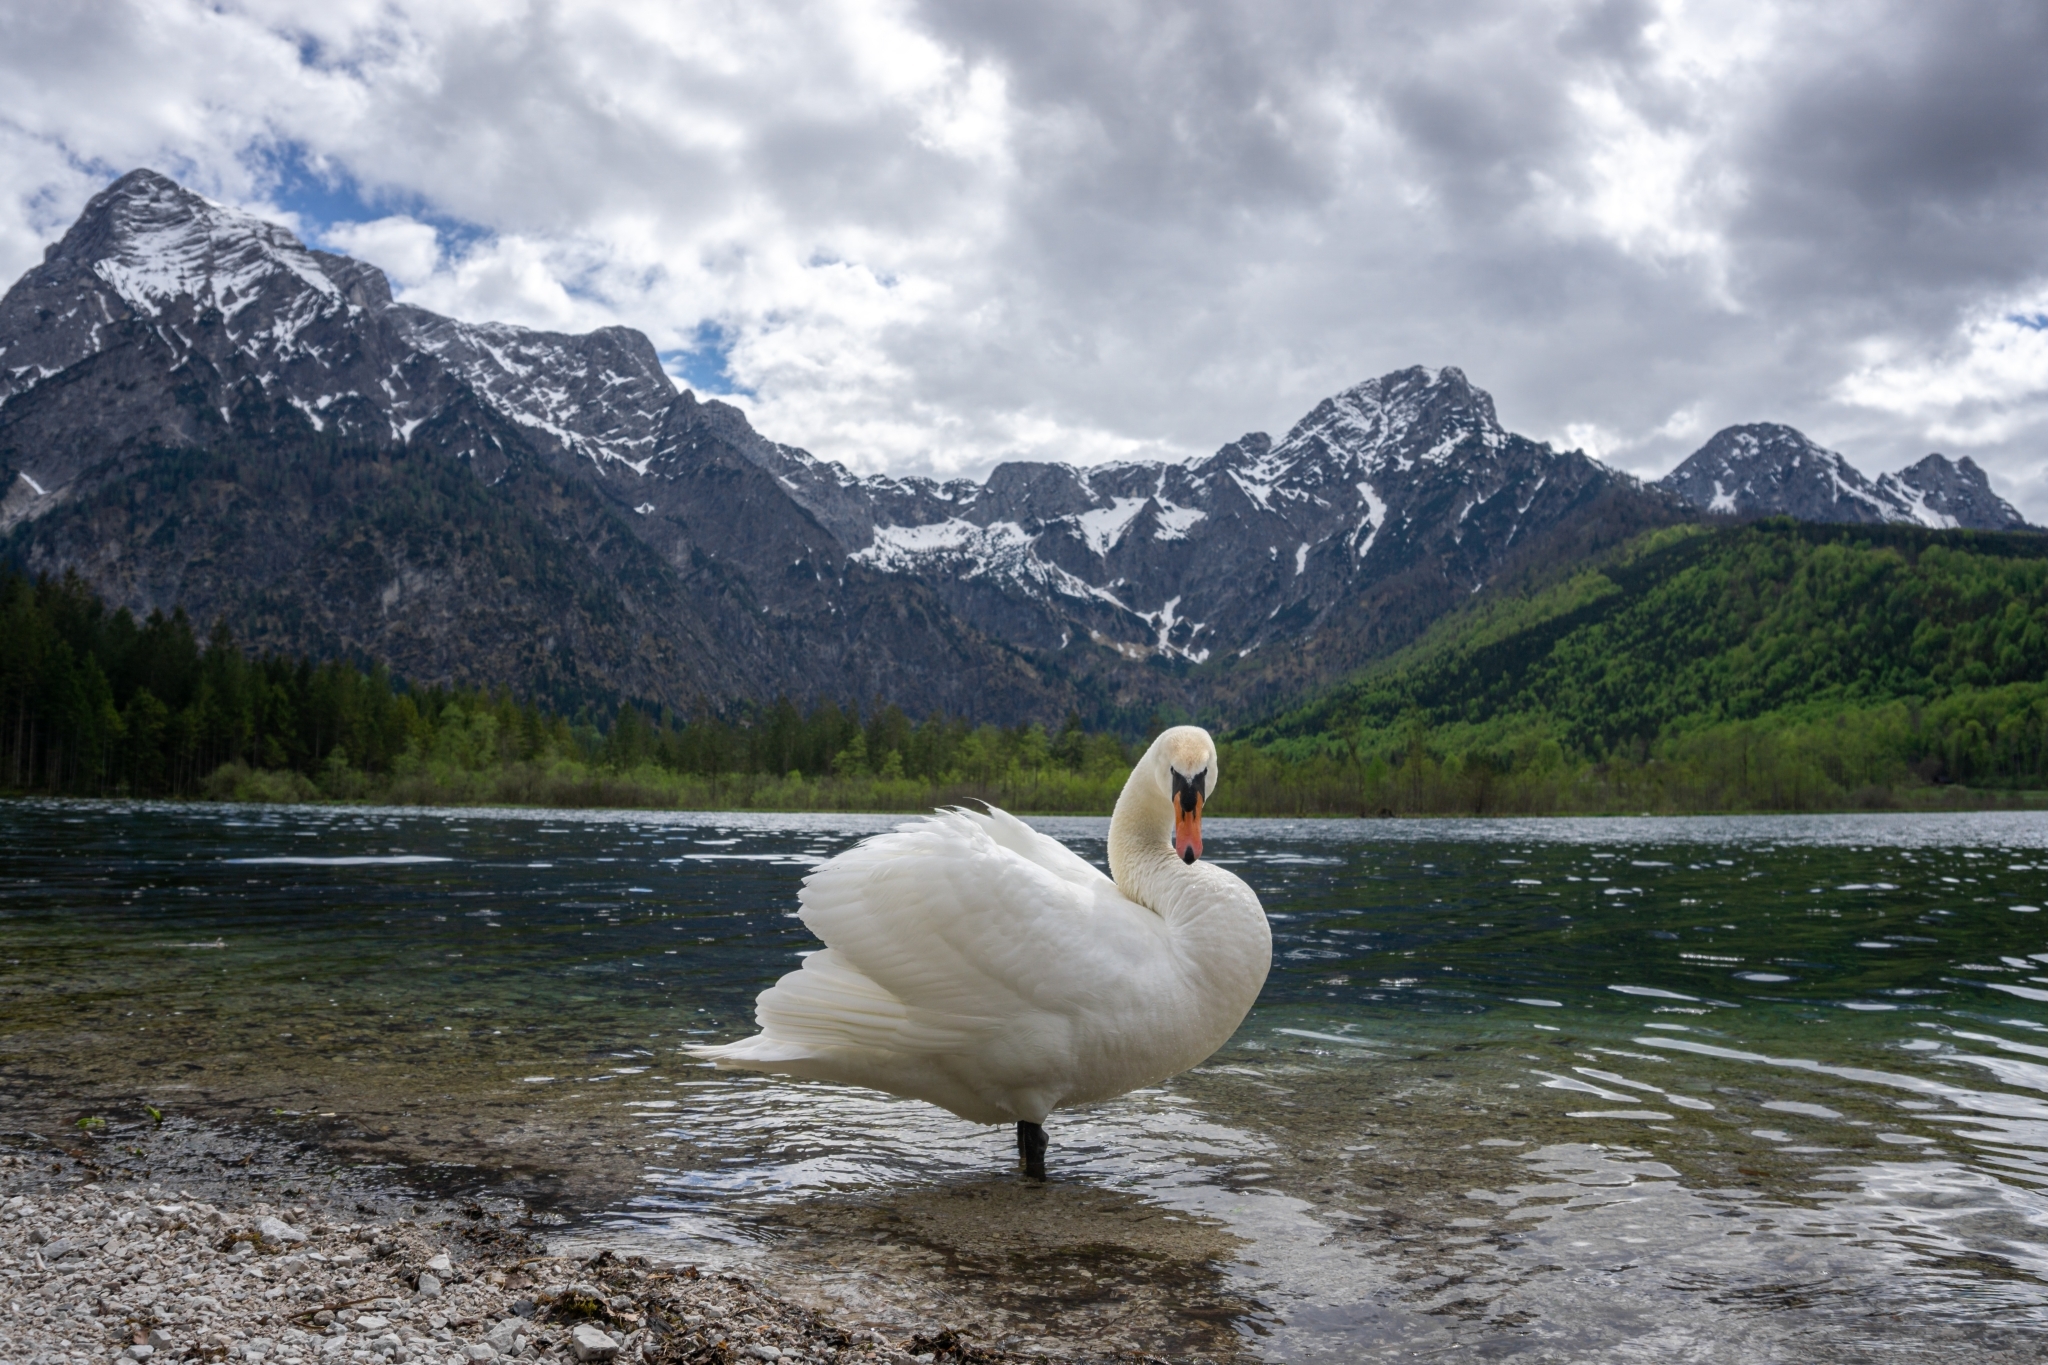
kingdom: Animalia
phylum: Chordata
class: Aves
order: Anseriformes
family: Anatidae
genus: Cygnus
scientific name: Cygnus olor
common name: Mute swan
